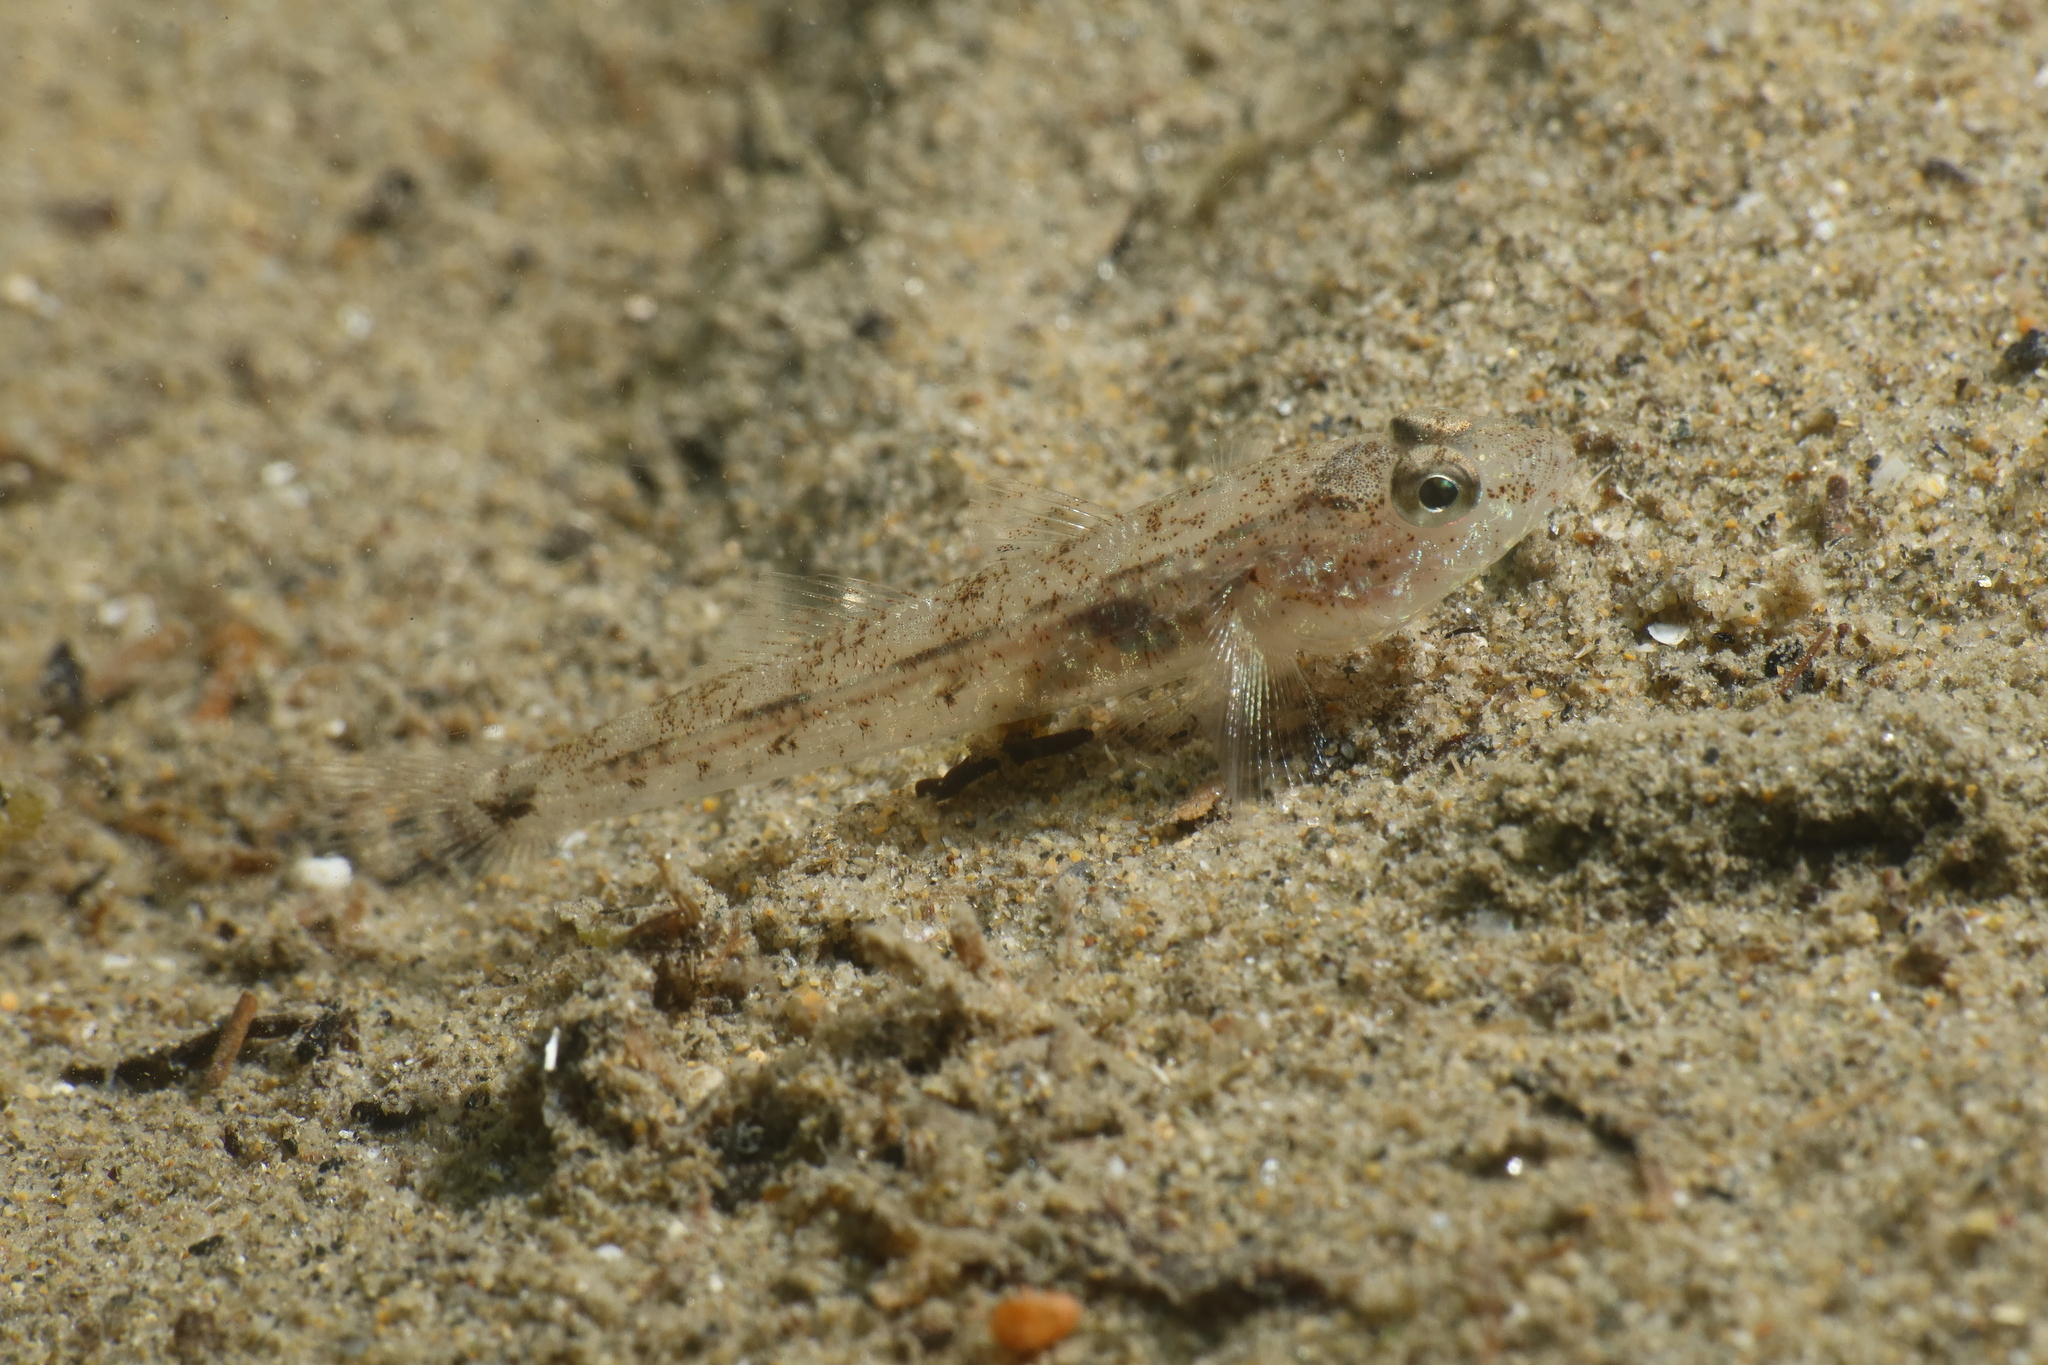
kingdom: Animalia
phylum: Chordata
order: Perciformes
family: Gobiidae
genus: Pomatoschistus
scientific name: Pomatoschistus minutus
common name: Sand goby
